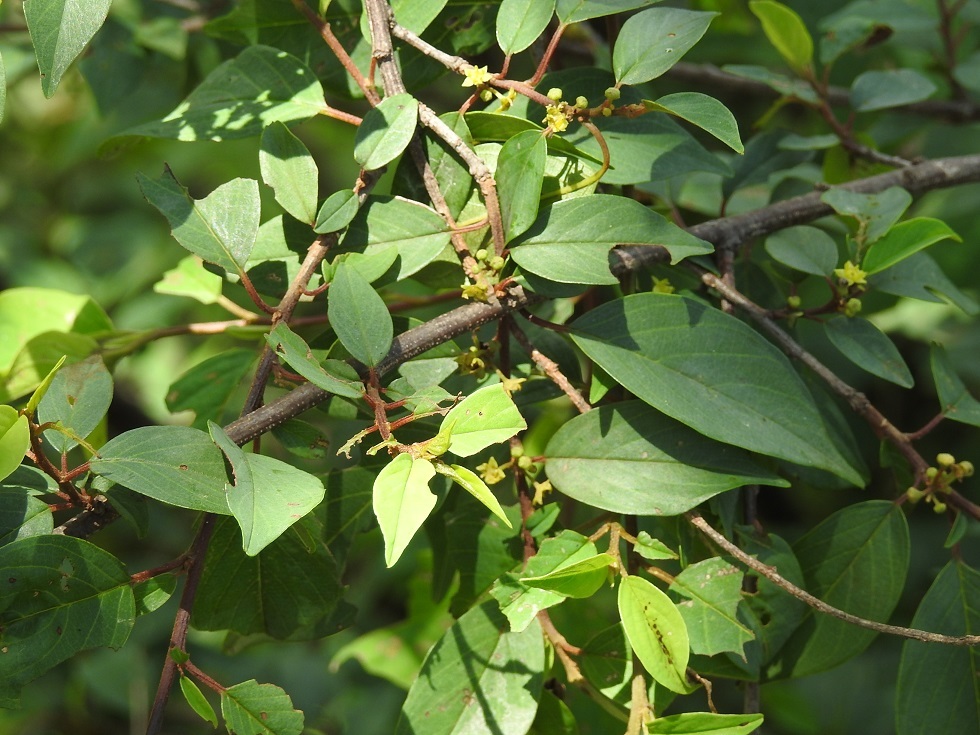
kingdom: Plantae
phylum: Tracheophyta
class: Magnoliopsida
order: Rosales
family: Rhamnaceae
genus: Colubrina
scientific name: Colubrina arborescens
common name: Wild coffee
